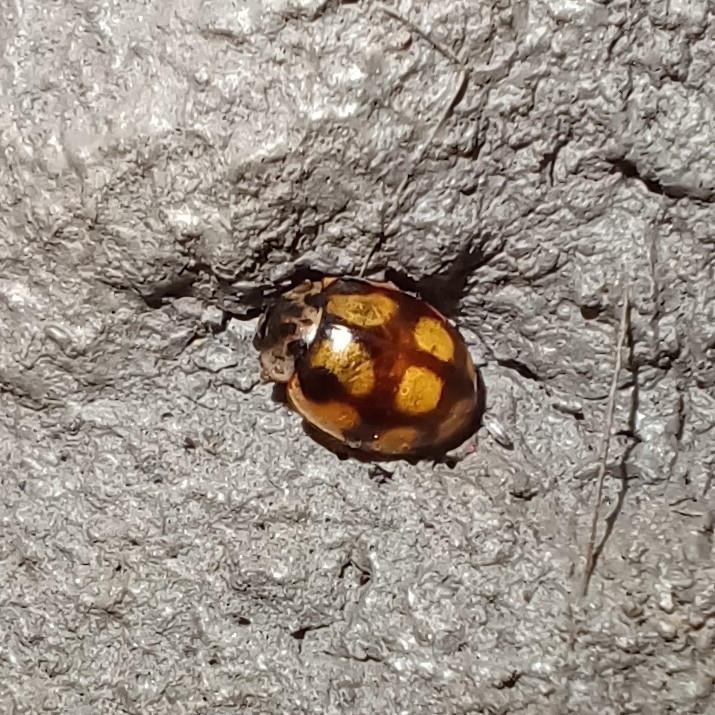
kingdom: Animalia
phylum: Arthropoda
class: Insecta
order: Coleoptera
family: Coccinellidae
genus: Adalia
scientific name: Adalia decempunctata
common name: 10-spot ladybird
